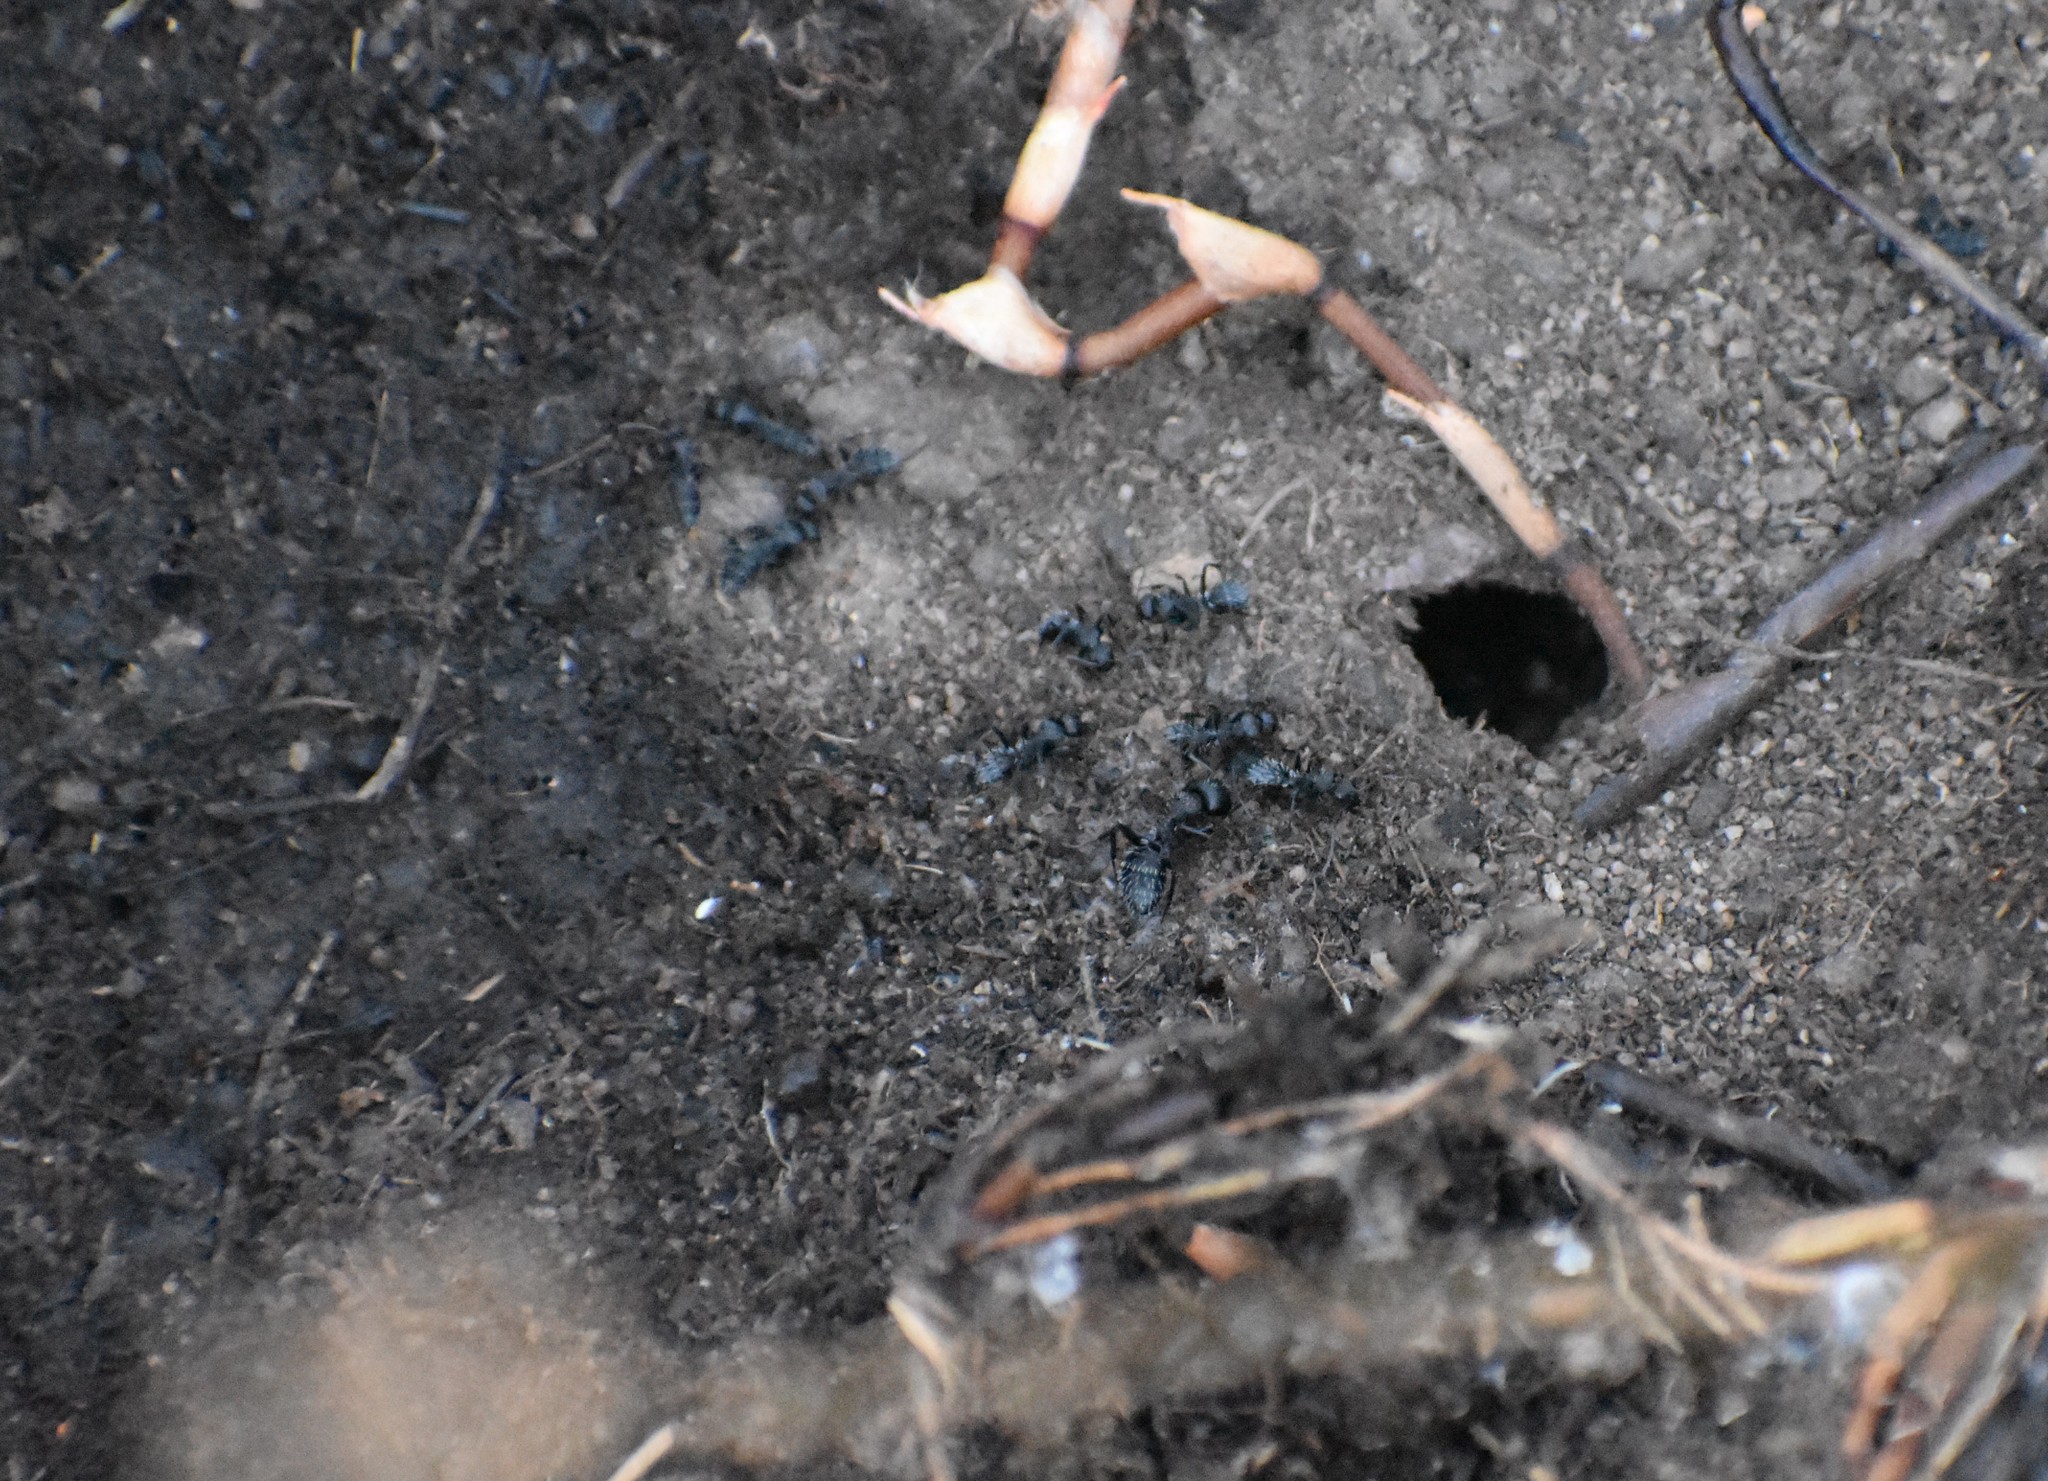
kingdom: Animalia
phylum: Arthropoda
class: Insecta
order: Hymenoptera
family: Formicidae
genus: Camponotus
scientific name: Camponotus niveosetosus
